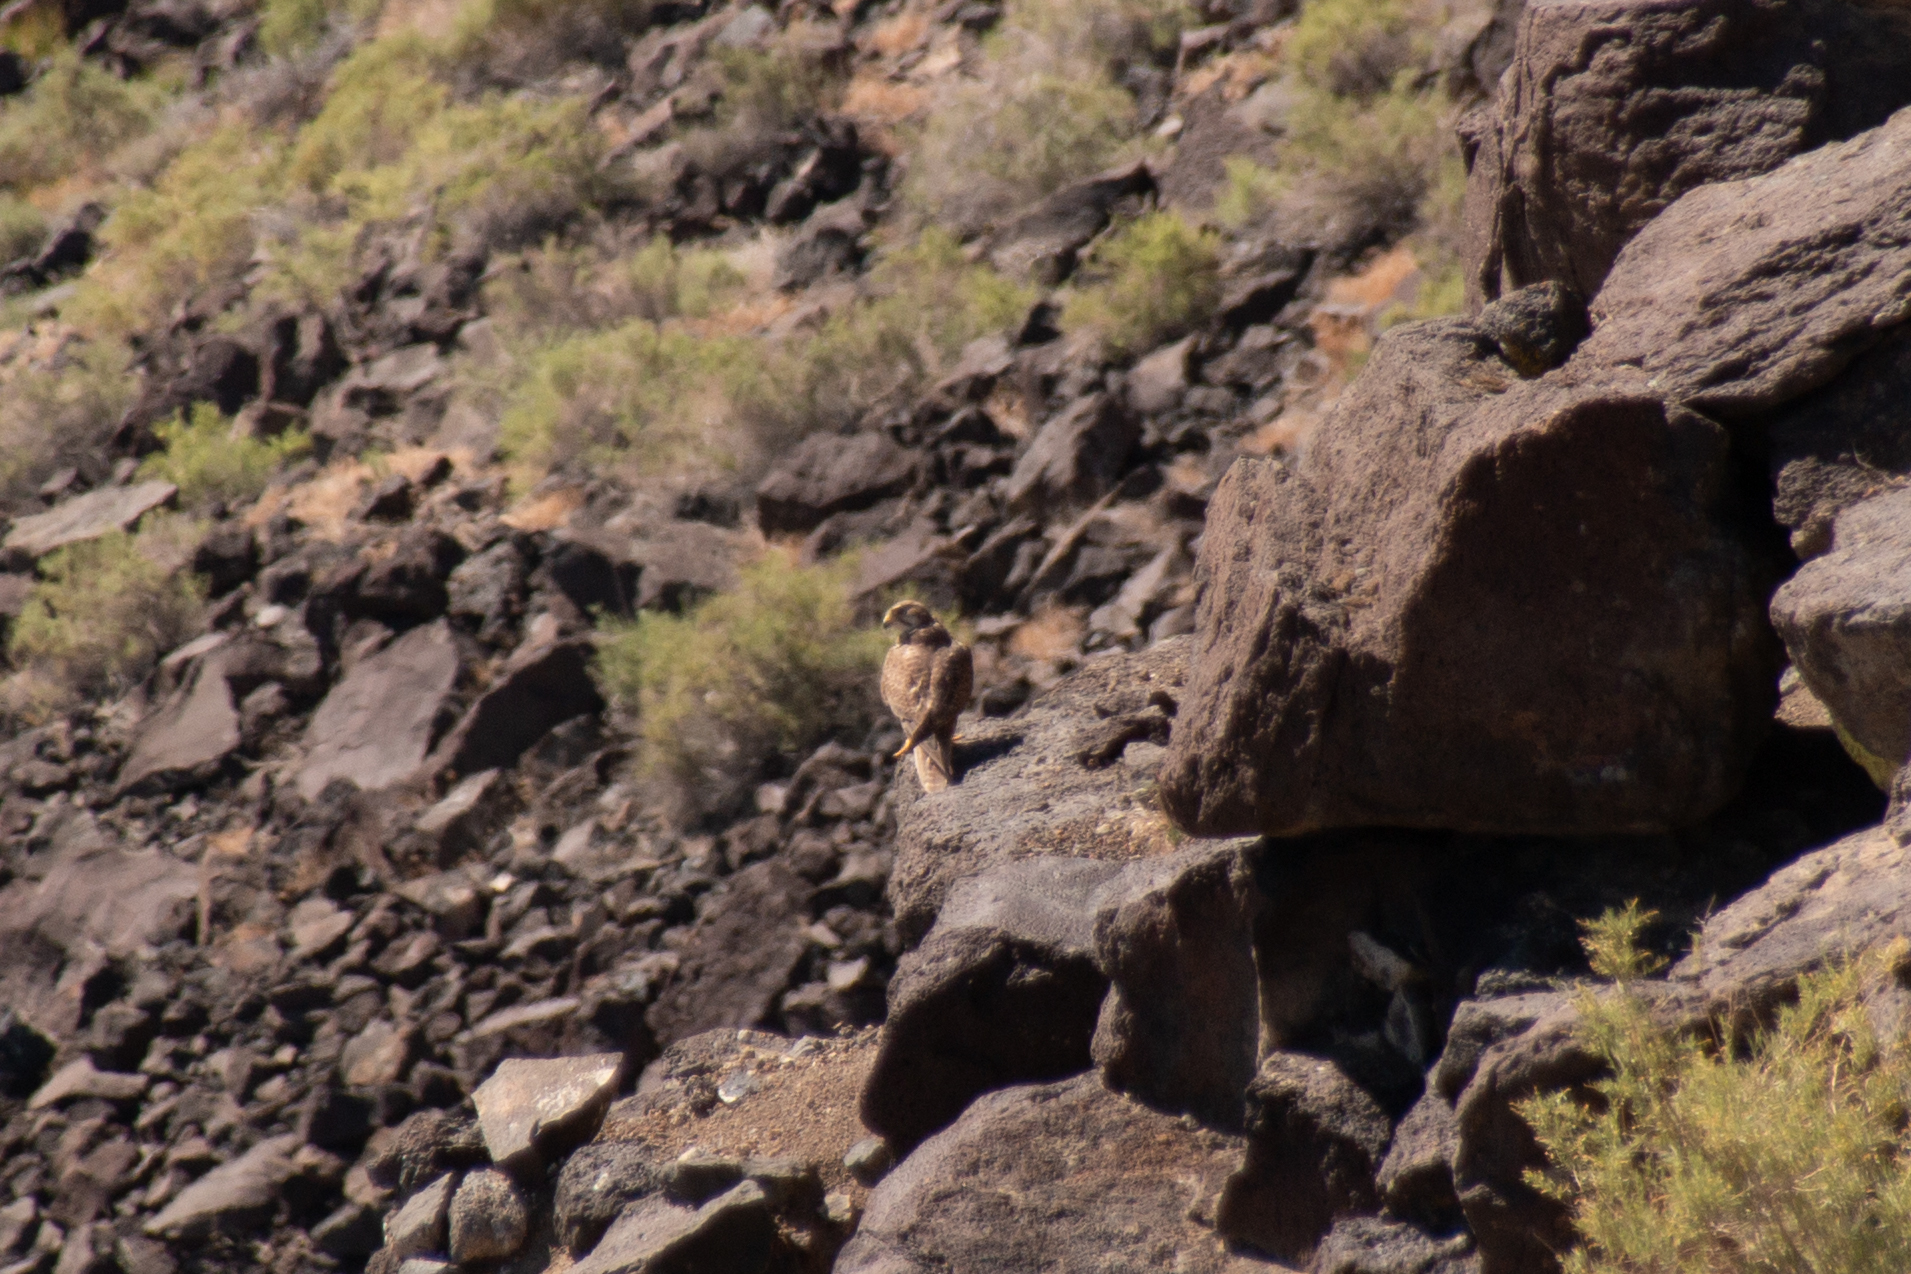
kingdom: Animalia
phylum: Chordata
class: Aves
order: Falconiformes
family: Falconidae
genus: Falco
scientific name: Falco mexicanus
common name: Prairie falcon
